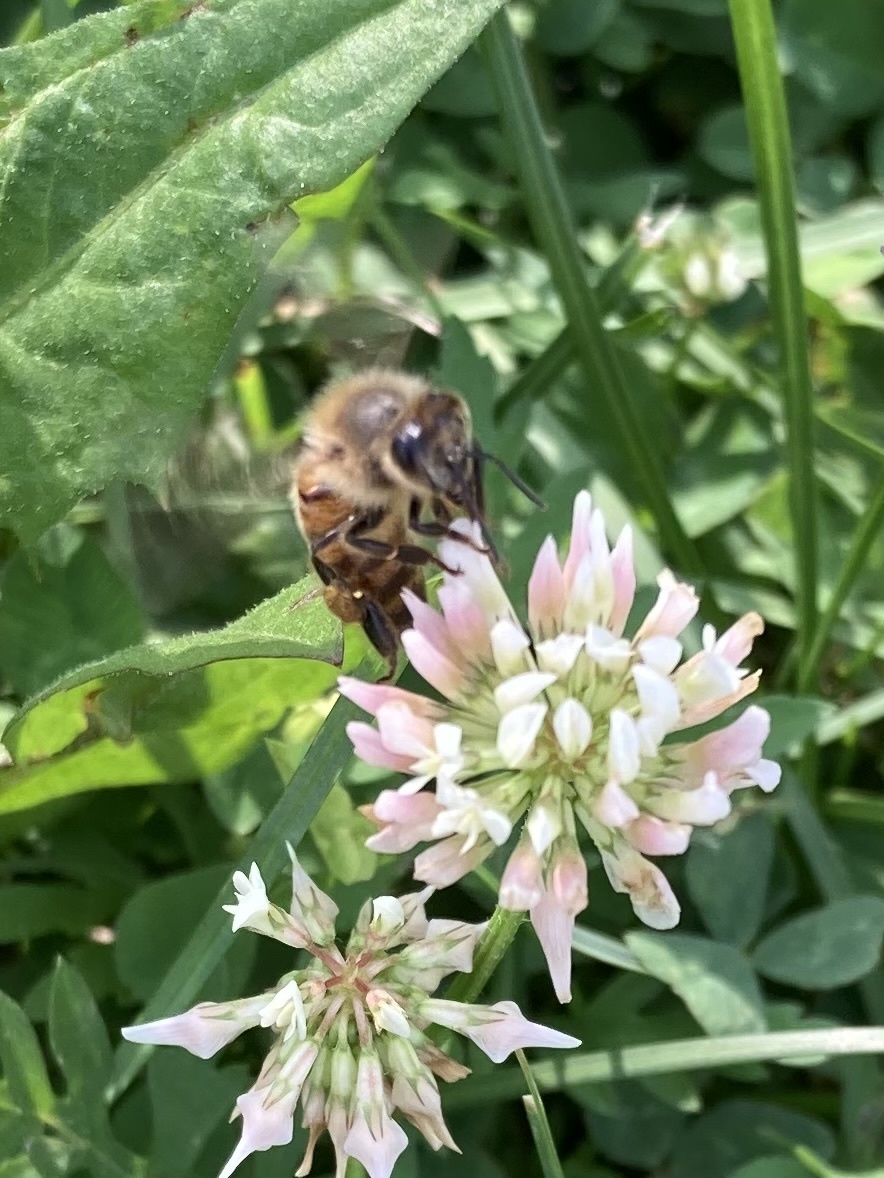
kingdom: Animalia
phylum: Arthropoda
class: Insecta
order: Hymenoptera
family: Apidae
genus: Apis
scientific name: Apis mellifera
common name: Honey bee
